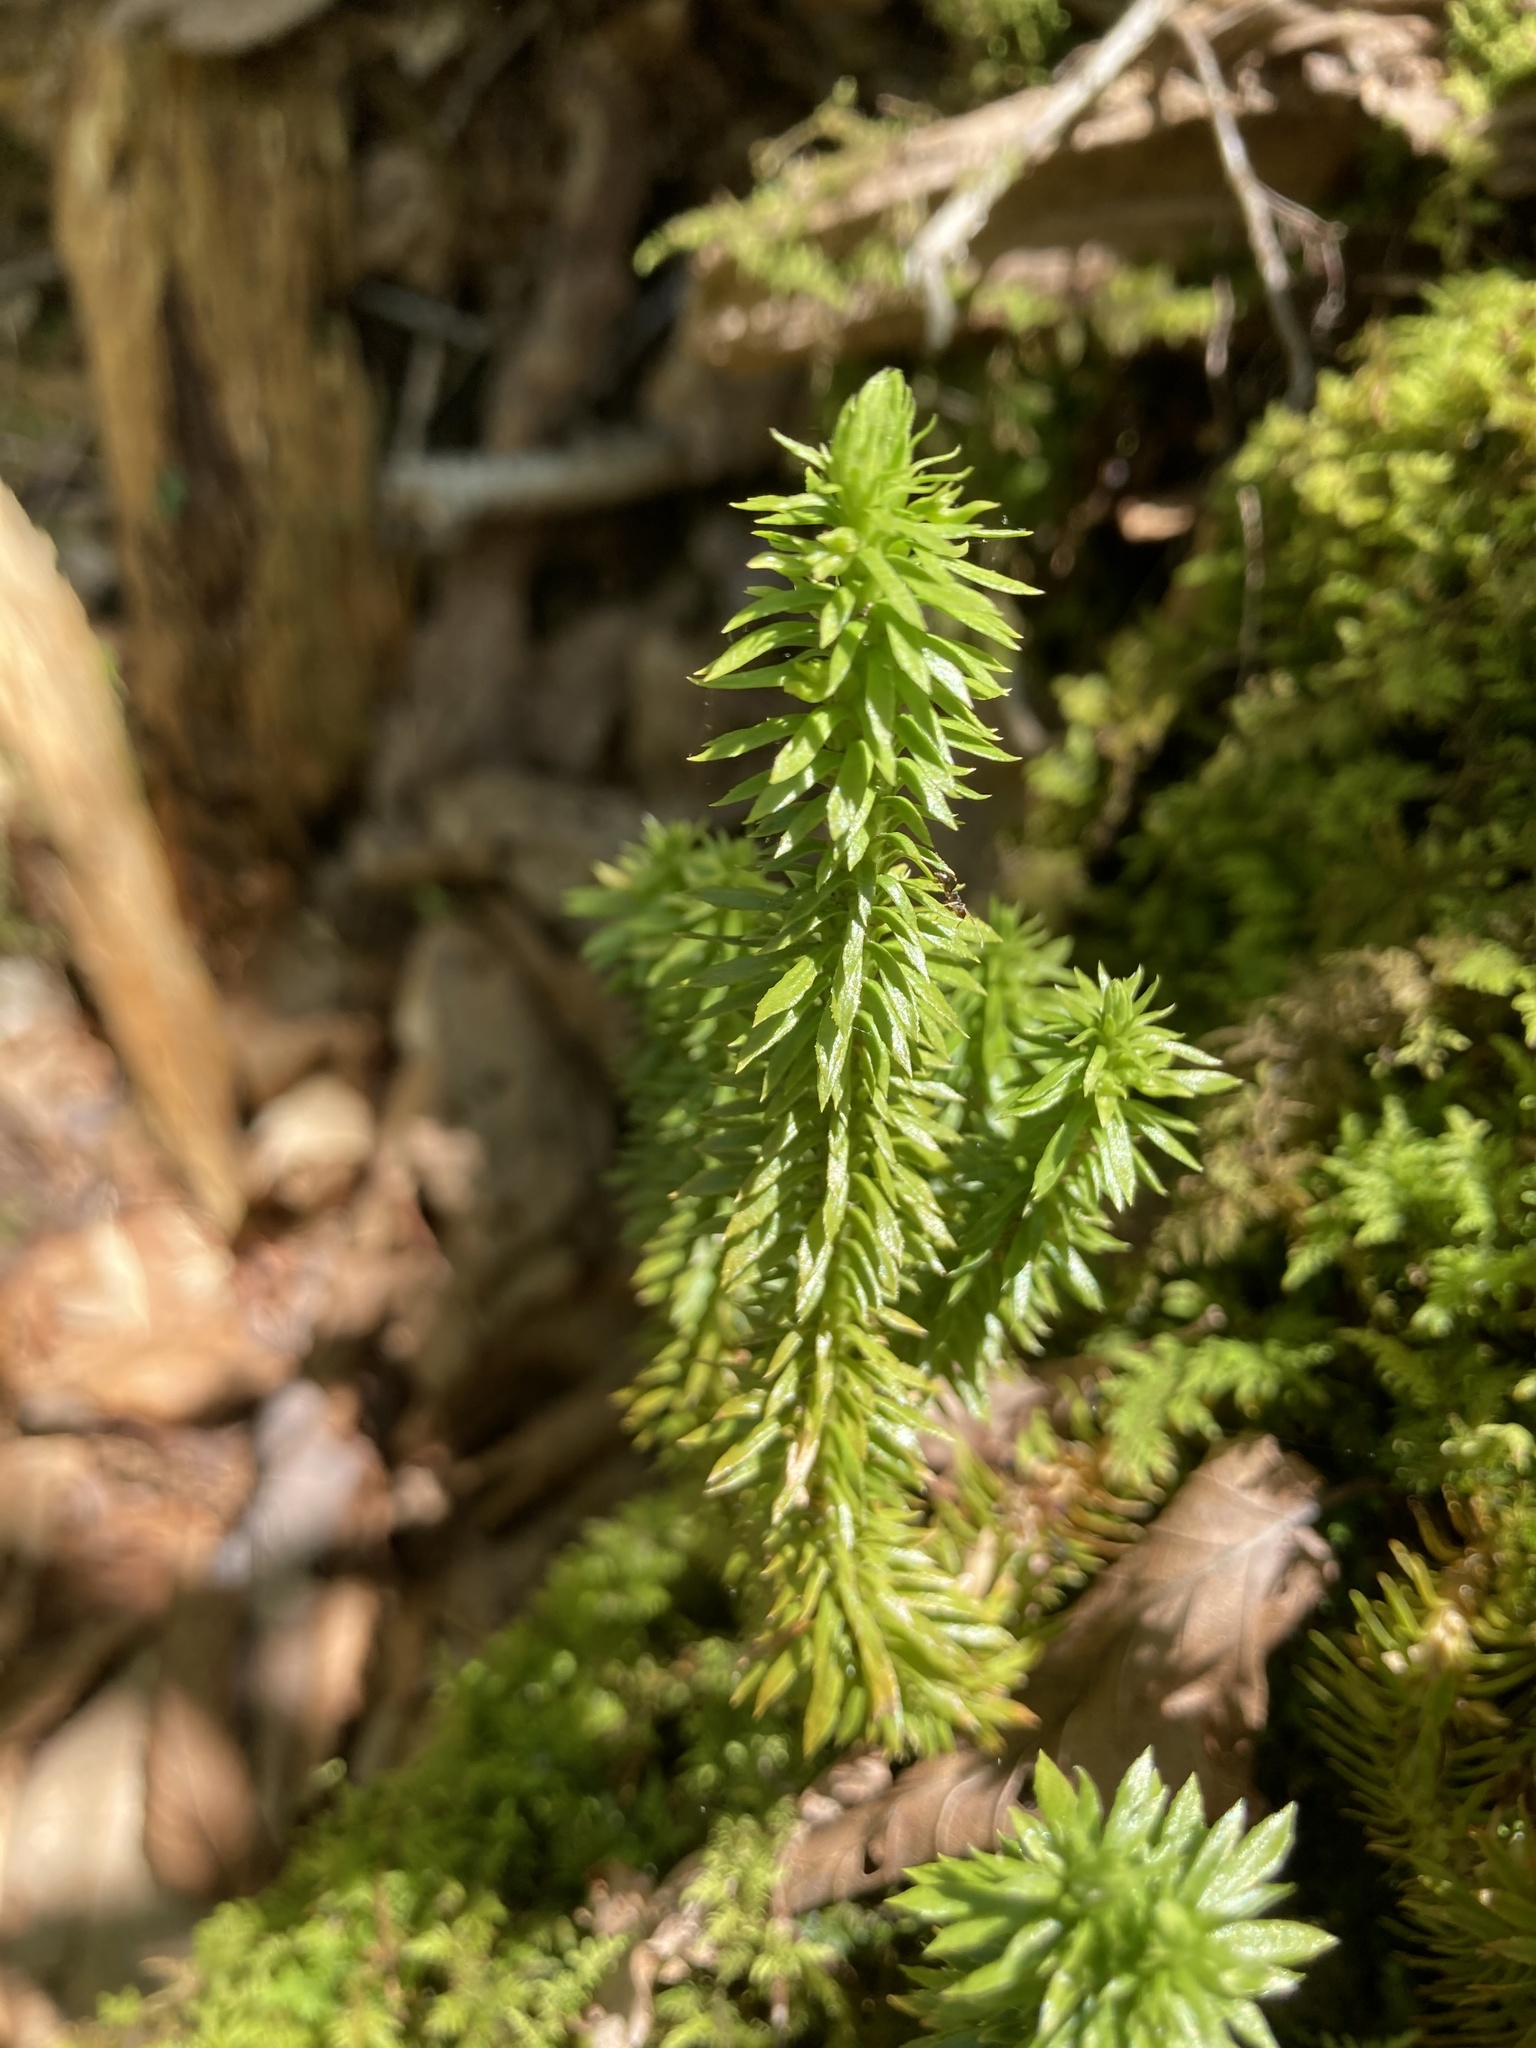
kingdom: Plantae
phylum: Tracheophyta
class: Lycopodiopsida
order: Lycopodiales
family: Lycopodiaceae
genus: Huperzia
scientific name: Huperzia lucidula
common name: Shining clubmoss
